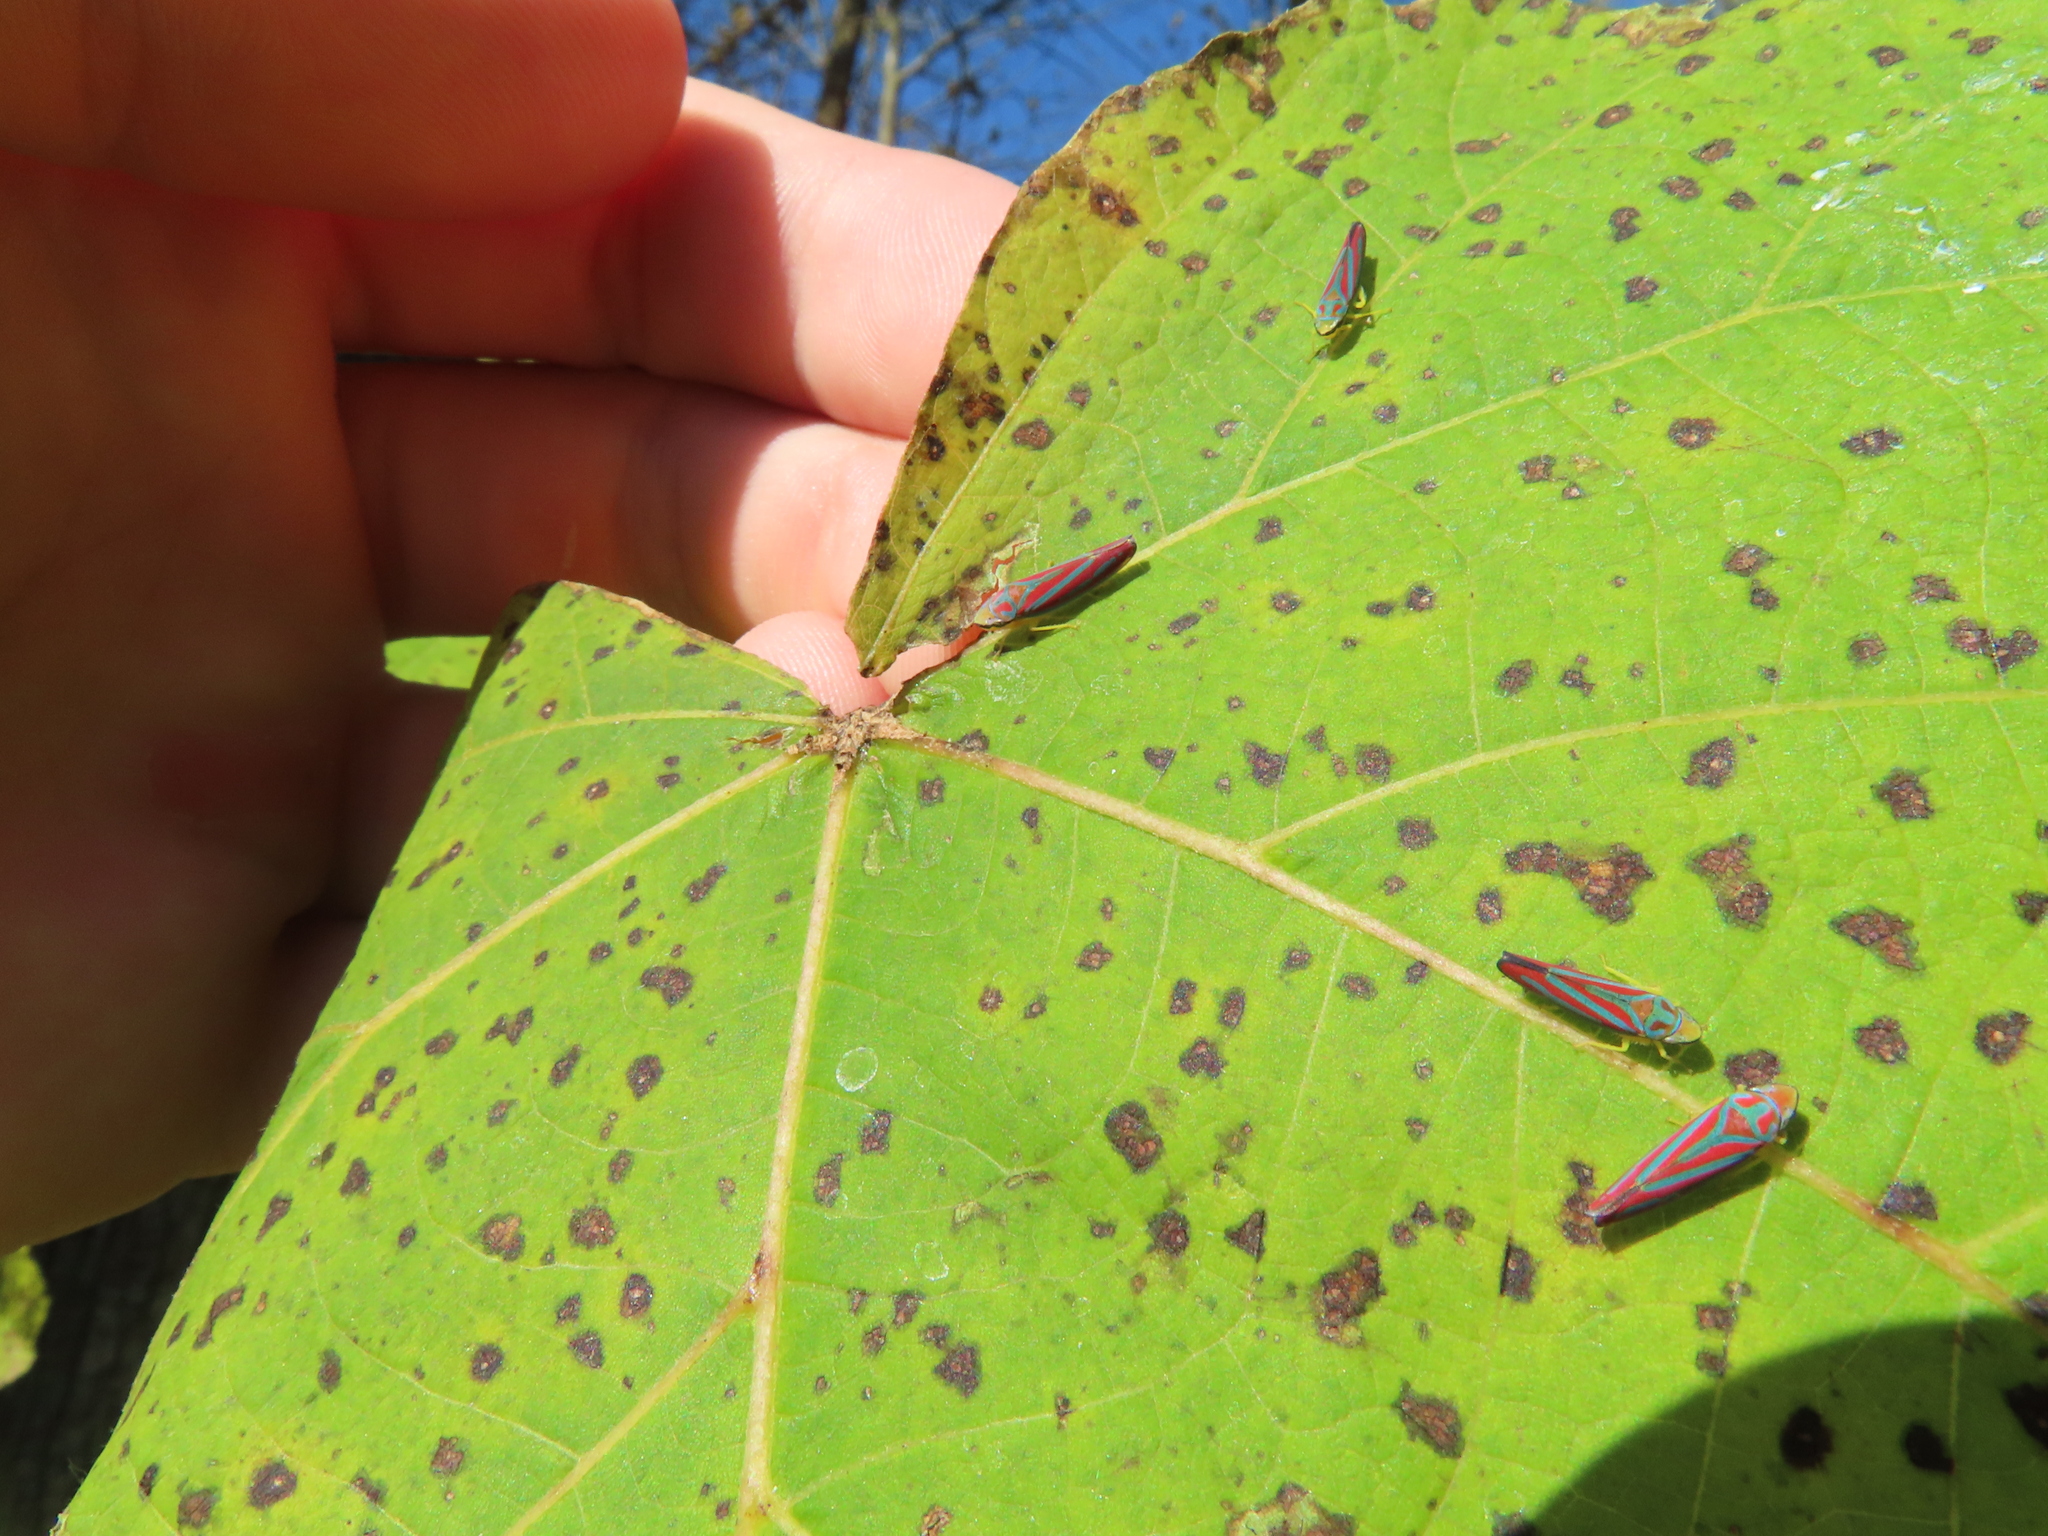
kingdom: Animalia
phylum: Arthropoda
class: Insecta
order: Hemiptera
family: Cicadellidae
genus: Graphocephala
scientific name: Graphocephala coccinea
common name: Candy-striped leafhopper
